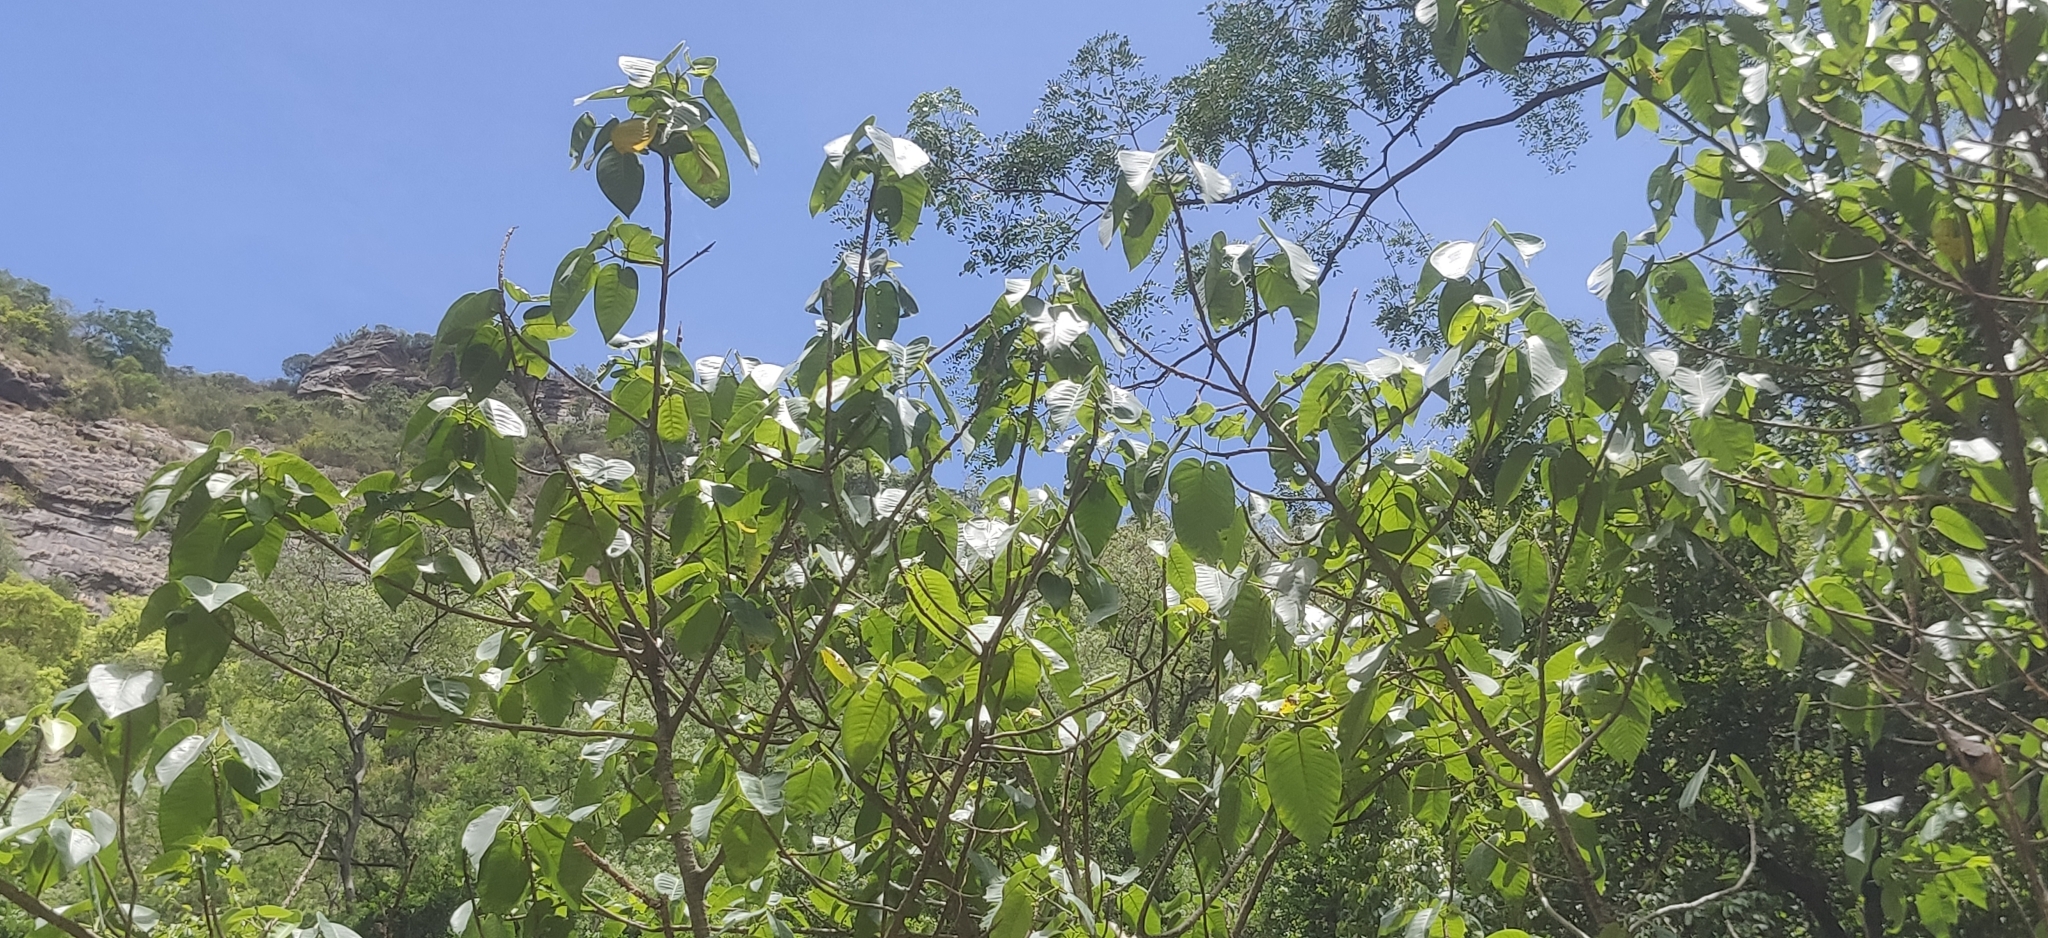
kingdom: Plantae
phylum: Tracheophyta
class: Magnoliopsida
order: Rosales
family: Moraceae
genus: Ficus
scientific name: Ficus anamalayana
